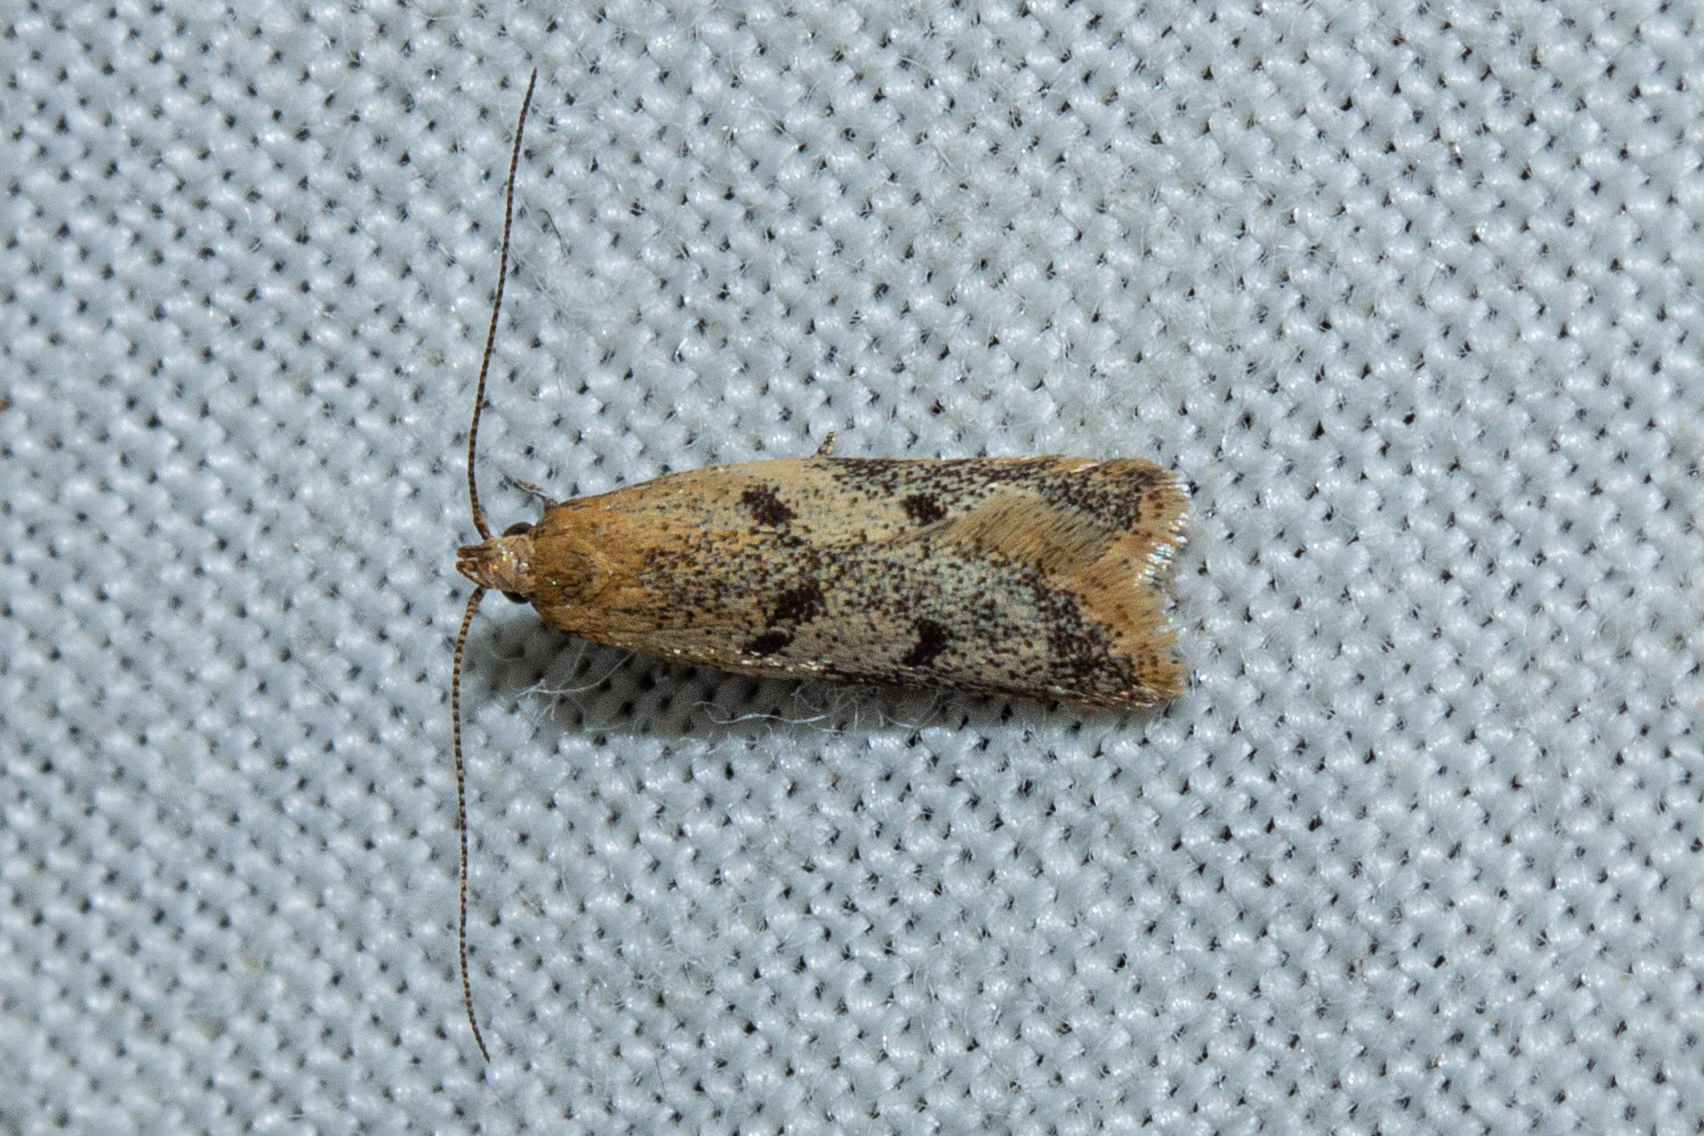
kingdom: Animalia
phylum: Arthropoda
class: Insecta
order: Lepidoptera
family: Oecophoridae
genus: Gymnobathra
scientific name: Gymnobathra tholodella
